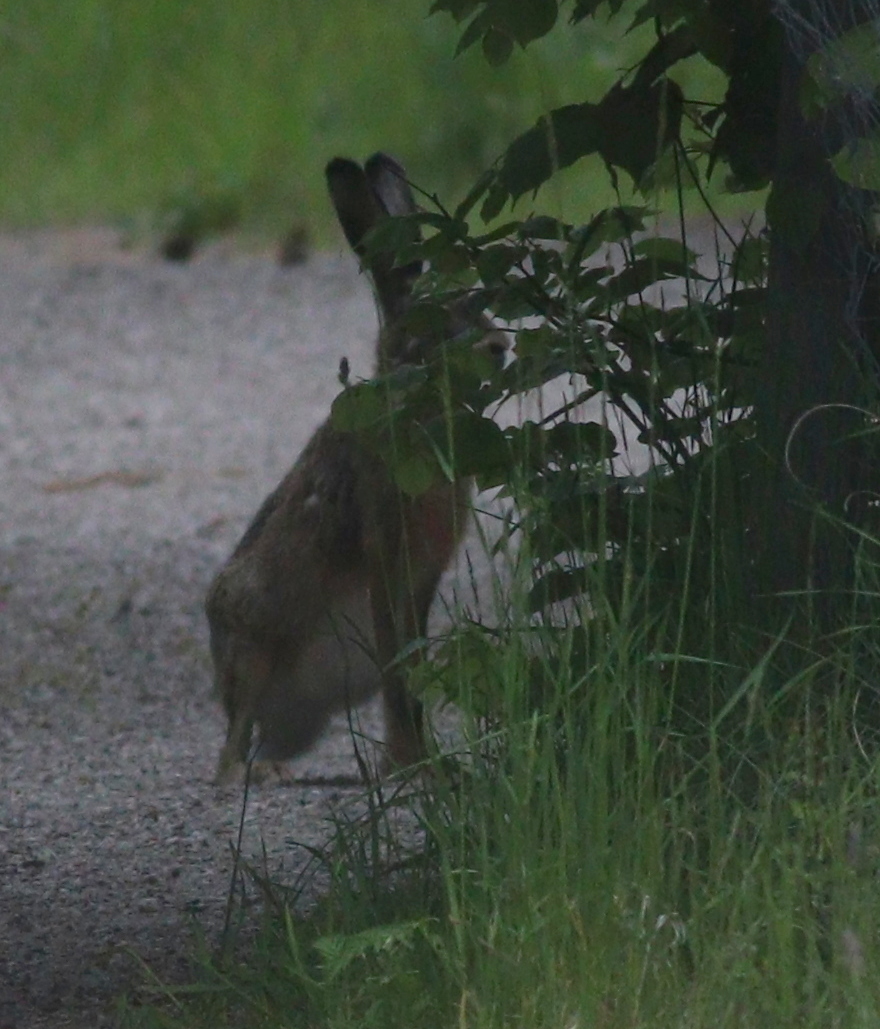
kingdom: Animalia
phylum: Chordata
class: Mammalia
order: Lagomorpha
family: Leporidae
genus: Lepus
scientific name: Lepus europaeus
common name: European hare
